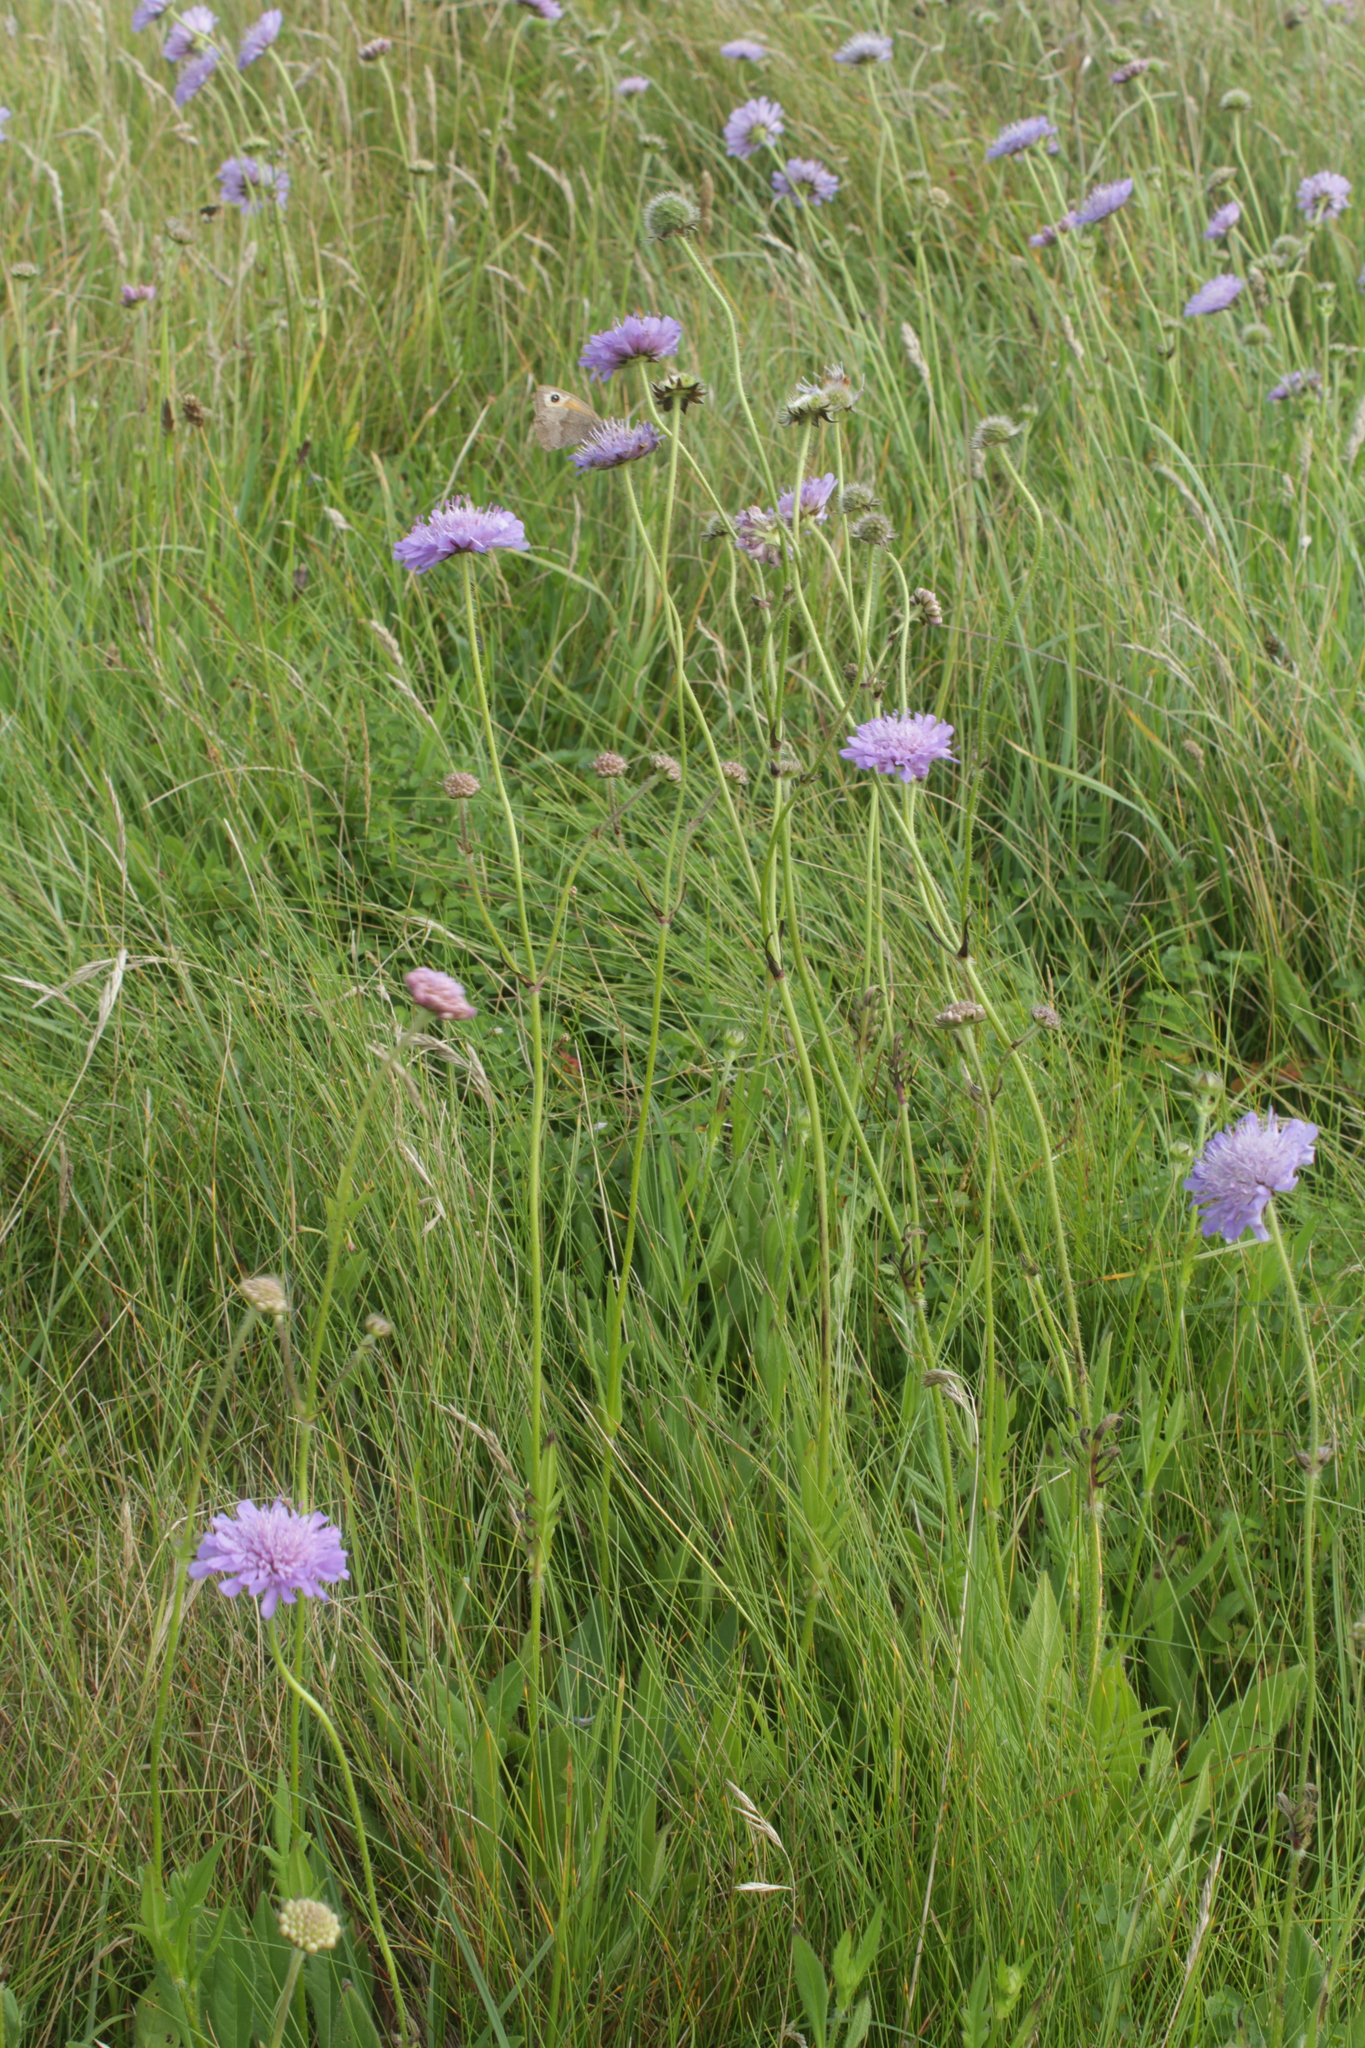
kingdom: Plantae
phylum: Tracheophyta
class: Magnoliopsida
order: Dipsacales
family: Caprifoliaceae
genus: Knautia
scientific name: Knautia arvensis
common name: Field scabiosa
